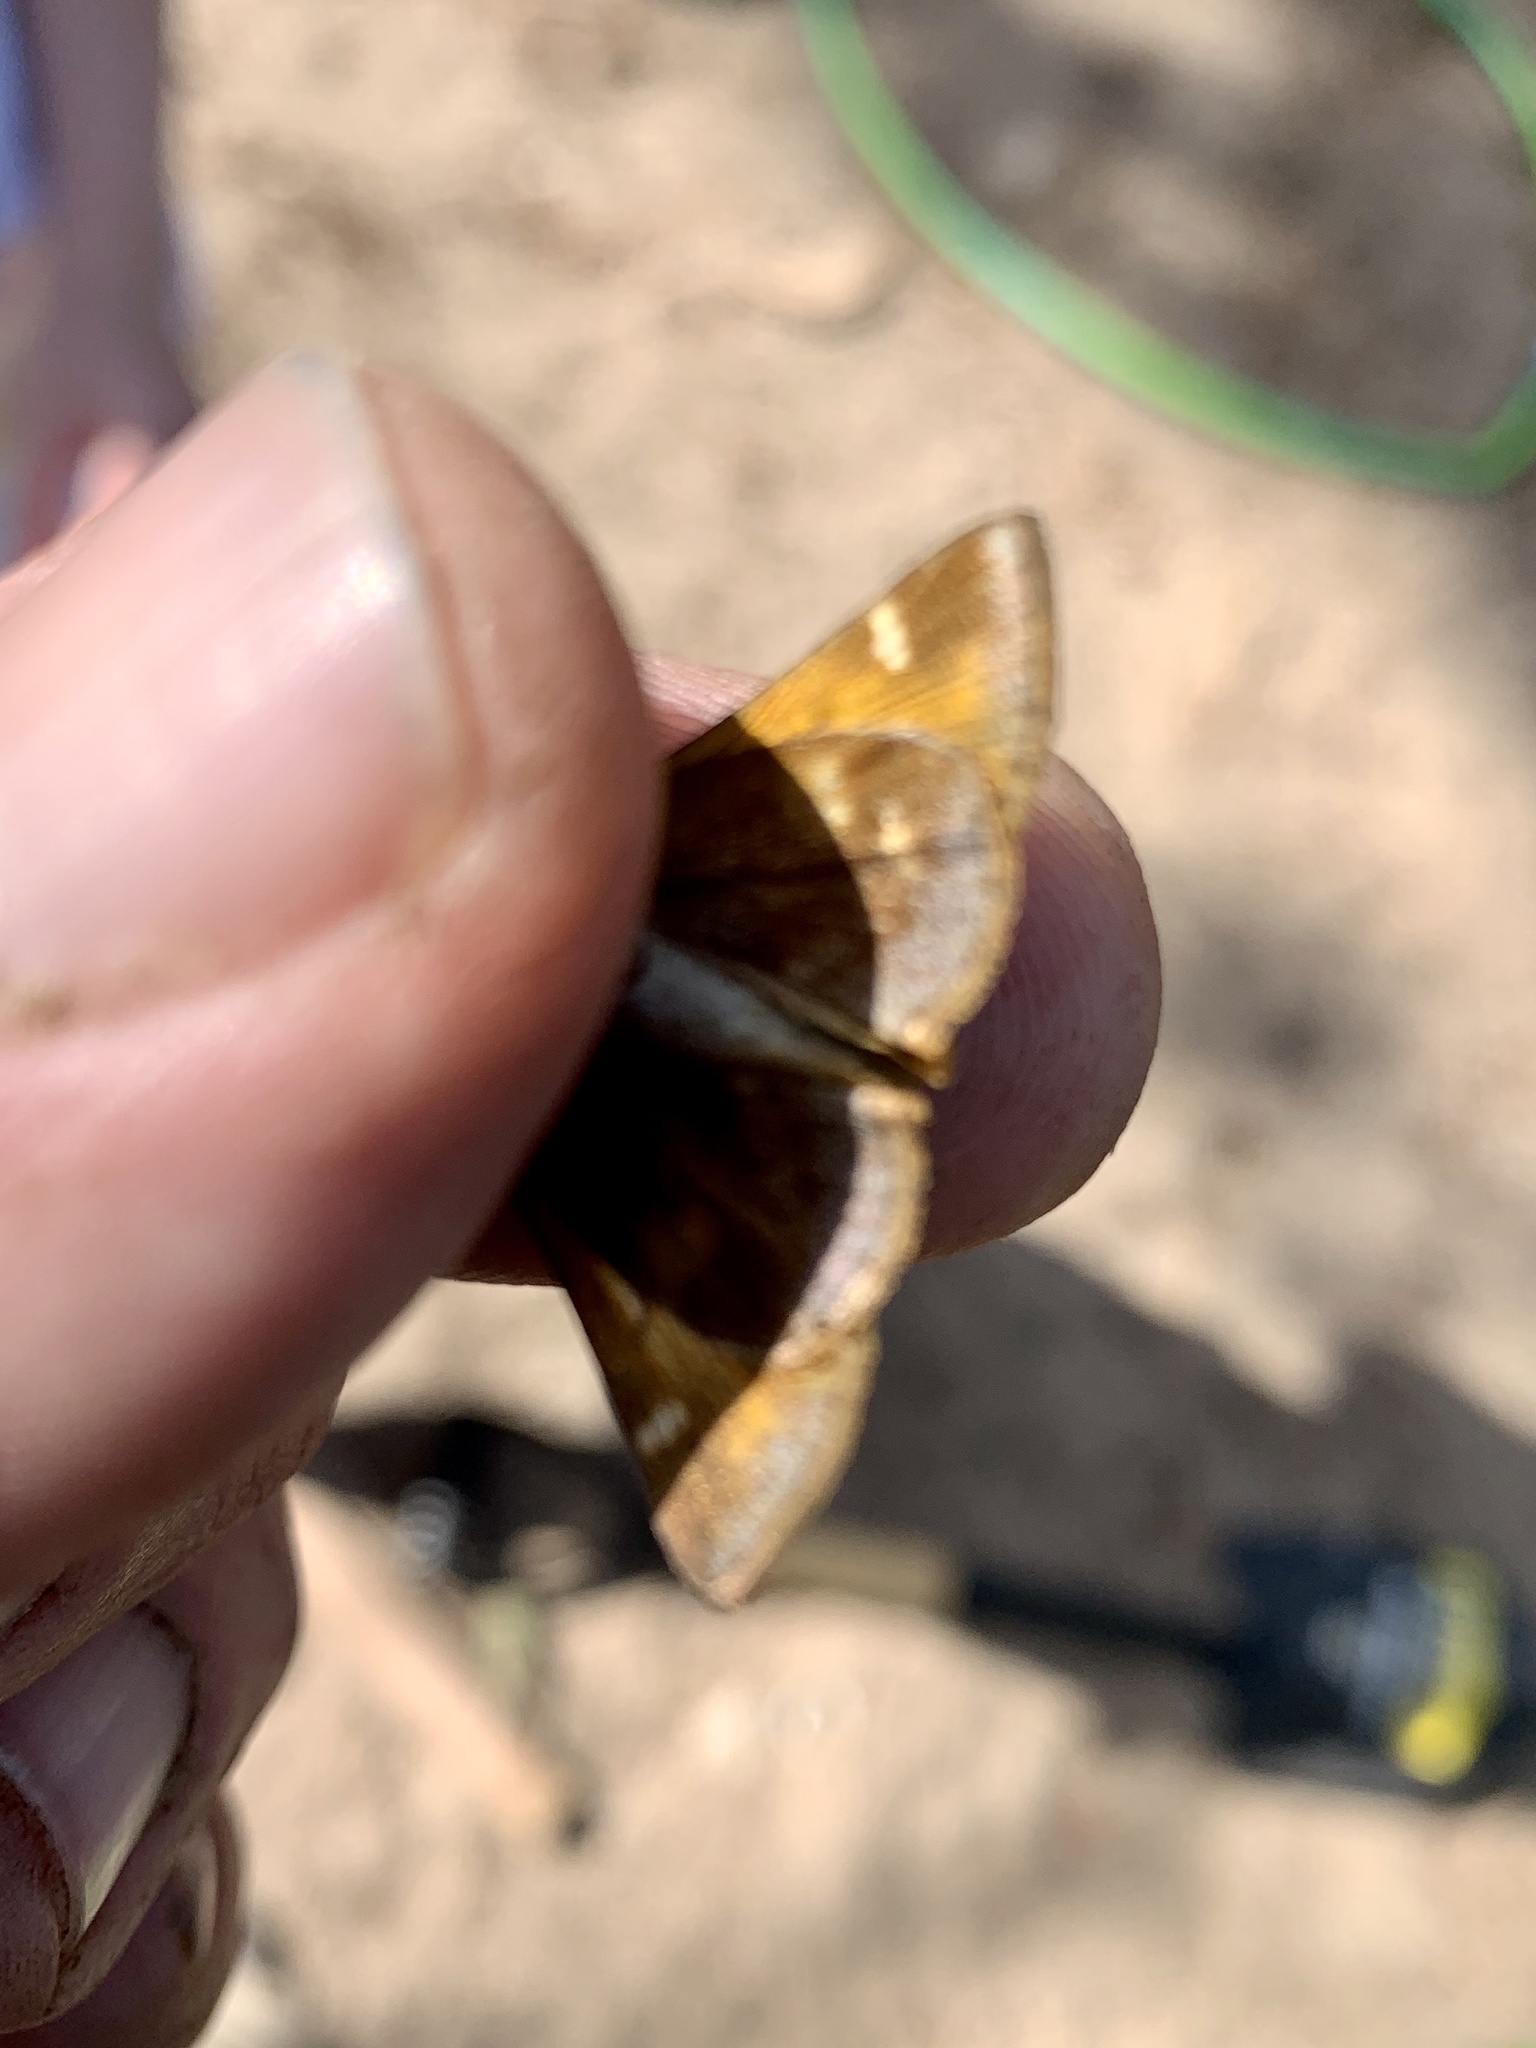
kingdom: Animalia
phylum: Arthropoda
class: Insecta
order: Lepidoptera
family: Hesperiidae
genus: Lon
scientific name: Lon taxiles
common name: Taxiles skipper
